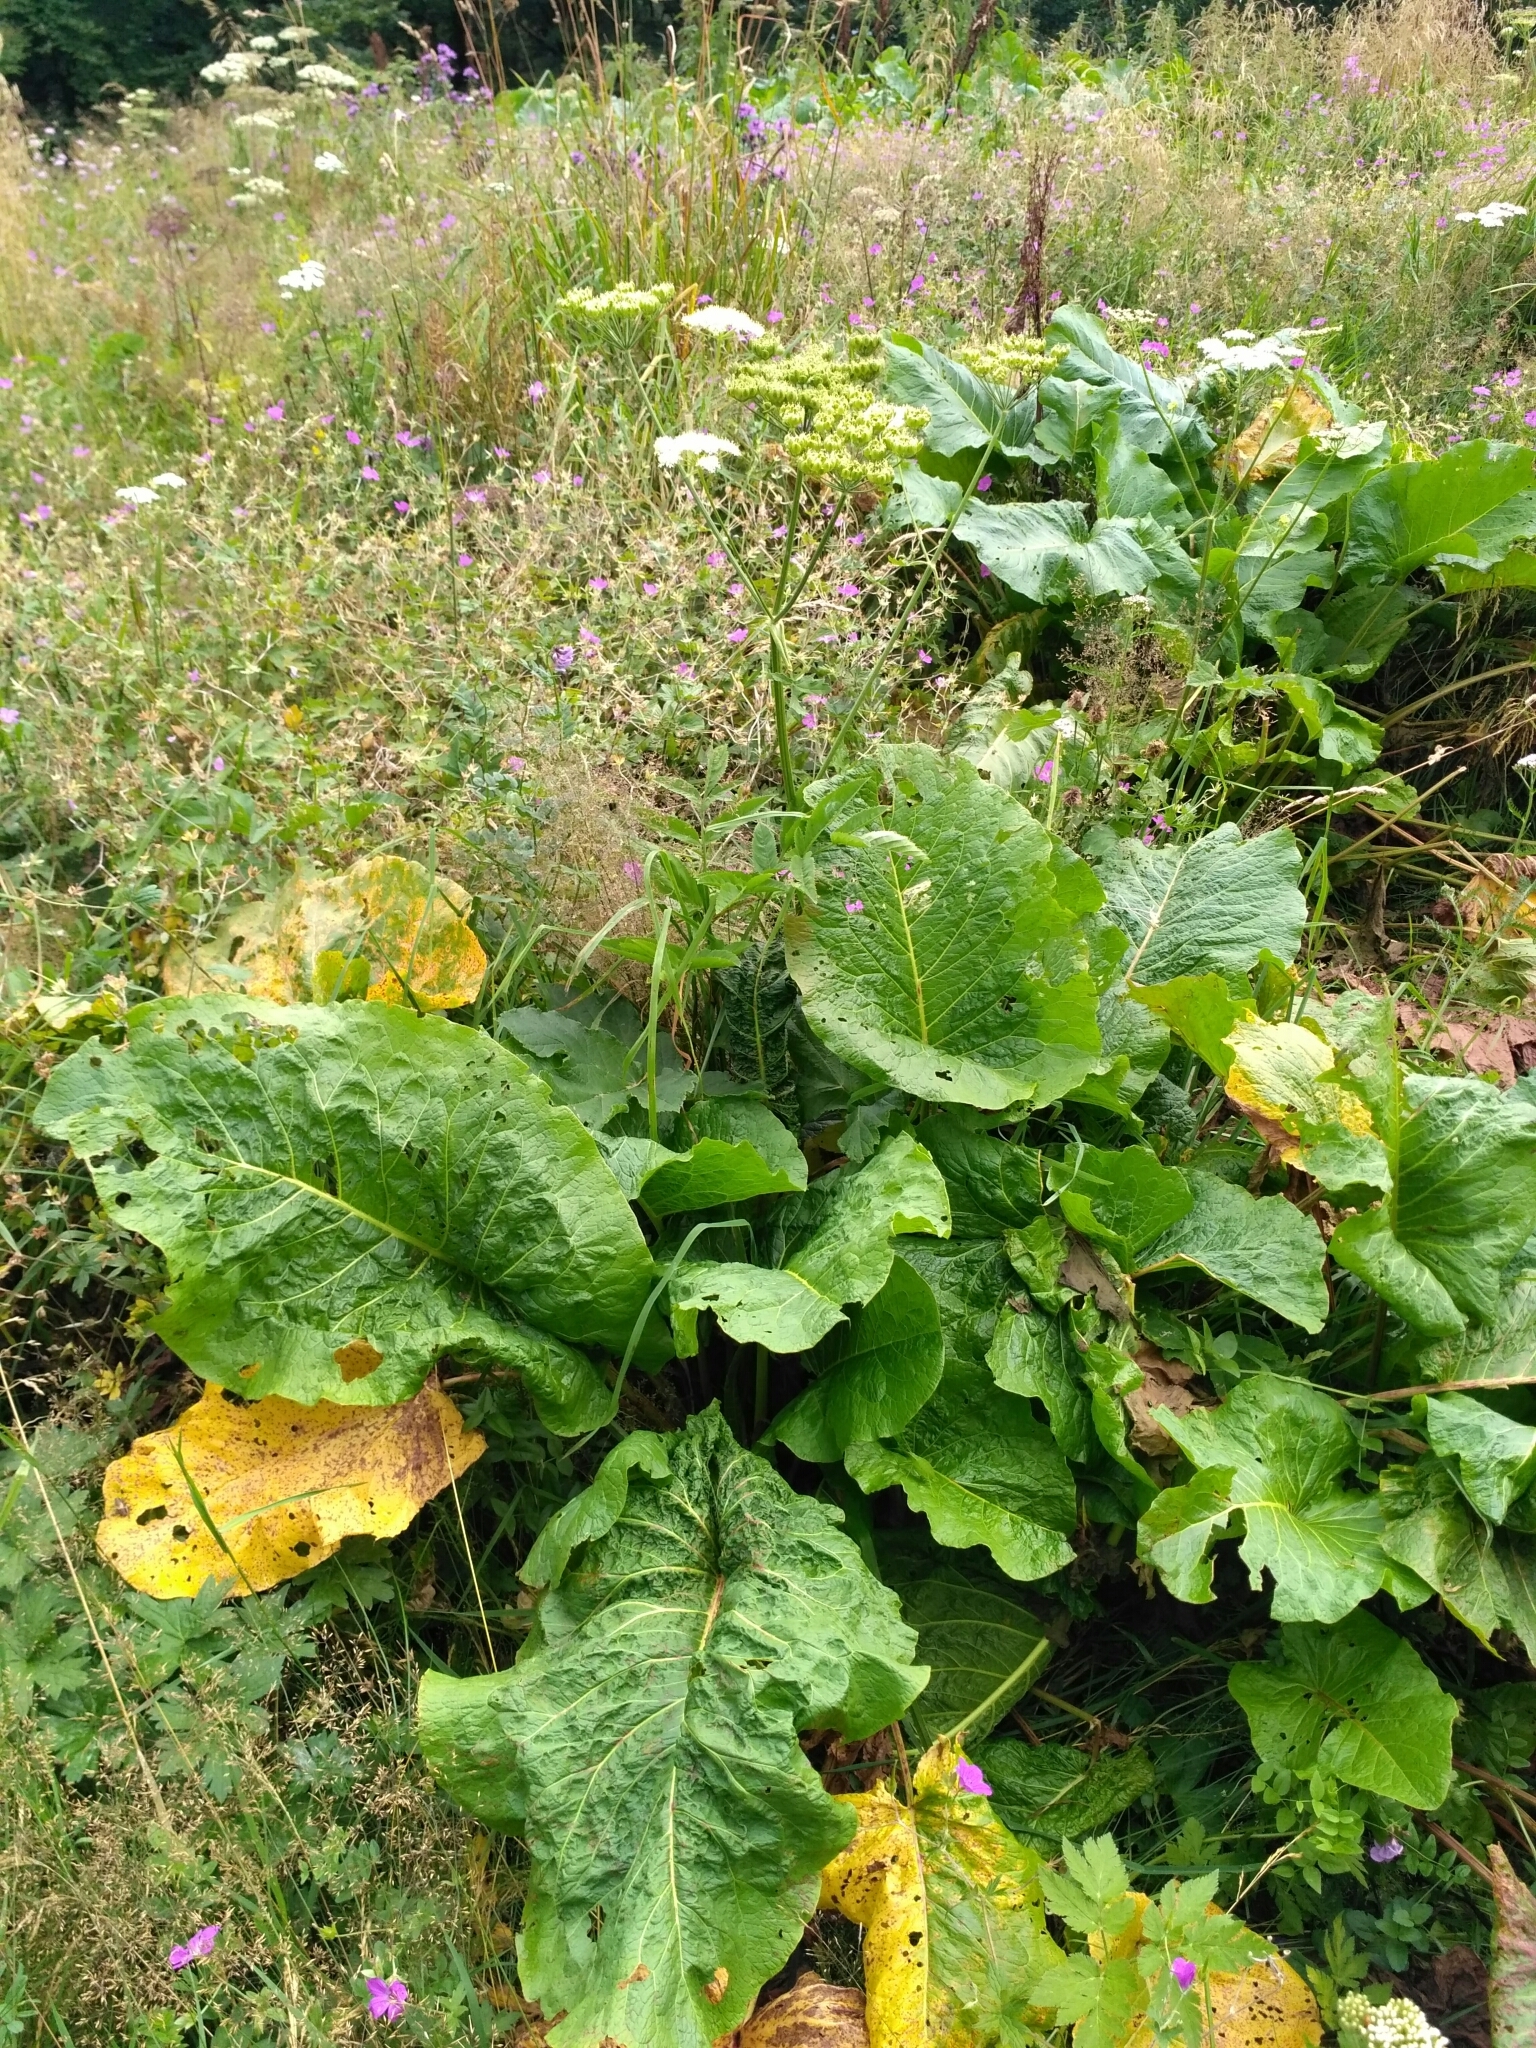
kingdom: Plantae
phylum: Tracheophyta
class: Magnoliopsida
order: Caryophyllales
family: Polygonaceae
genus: Rumex
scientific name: Rumex confertus
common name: Russian dock
